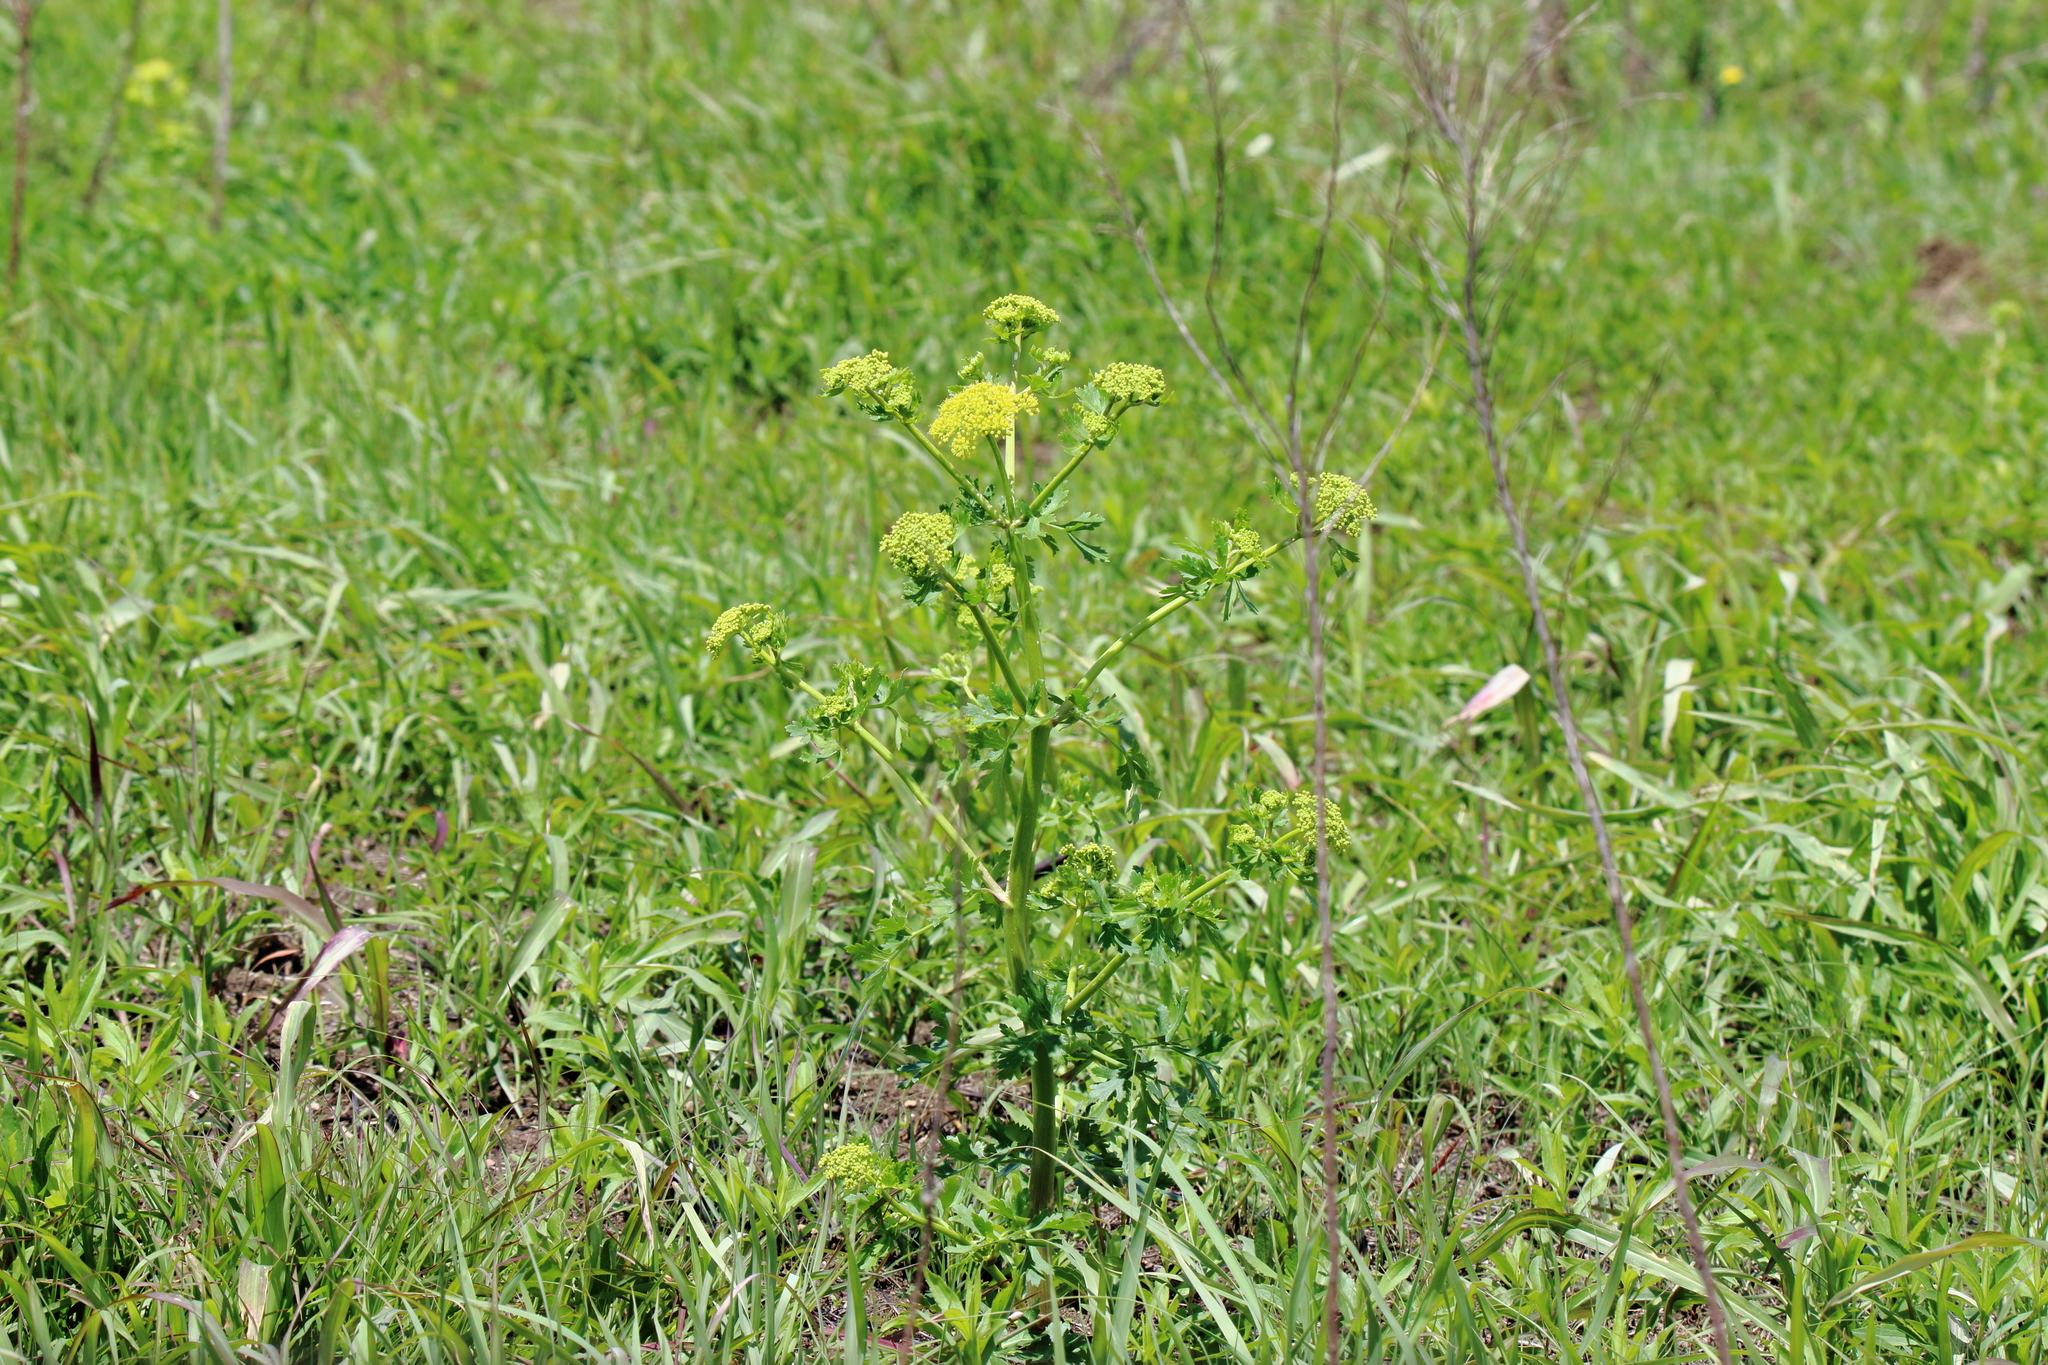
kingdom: Plantae
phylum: Tracheophyta
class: Magnoliopsida
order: Apiales
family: Apiaceae
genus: Polytaenia
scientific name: Polytaenia texana
